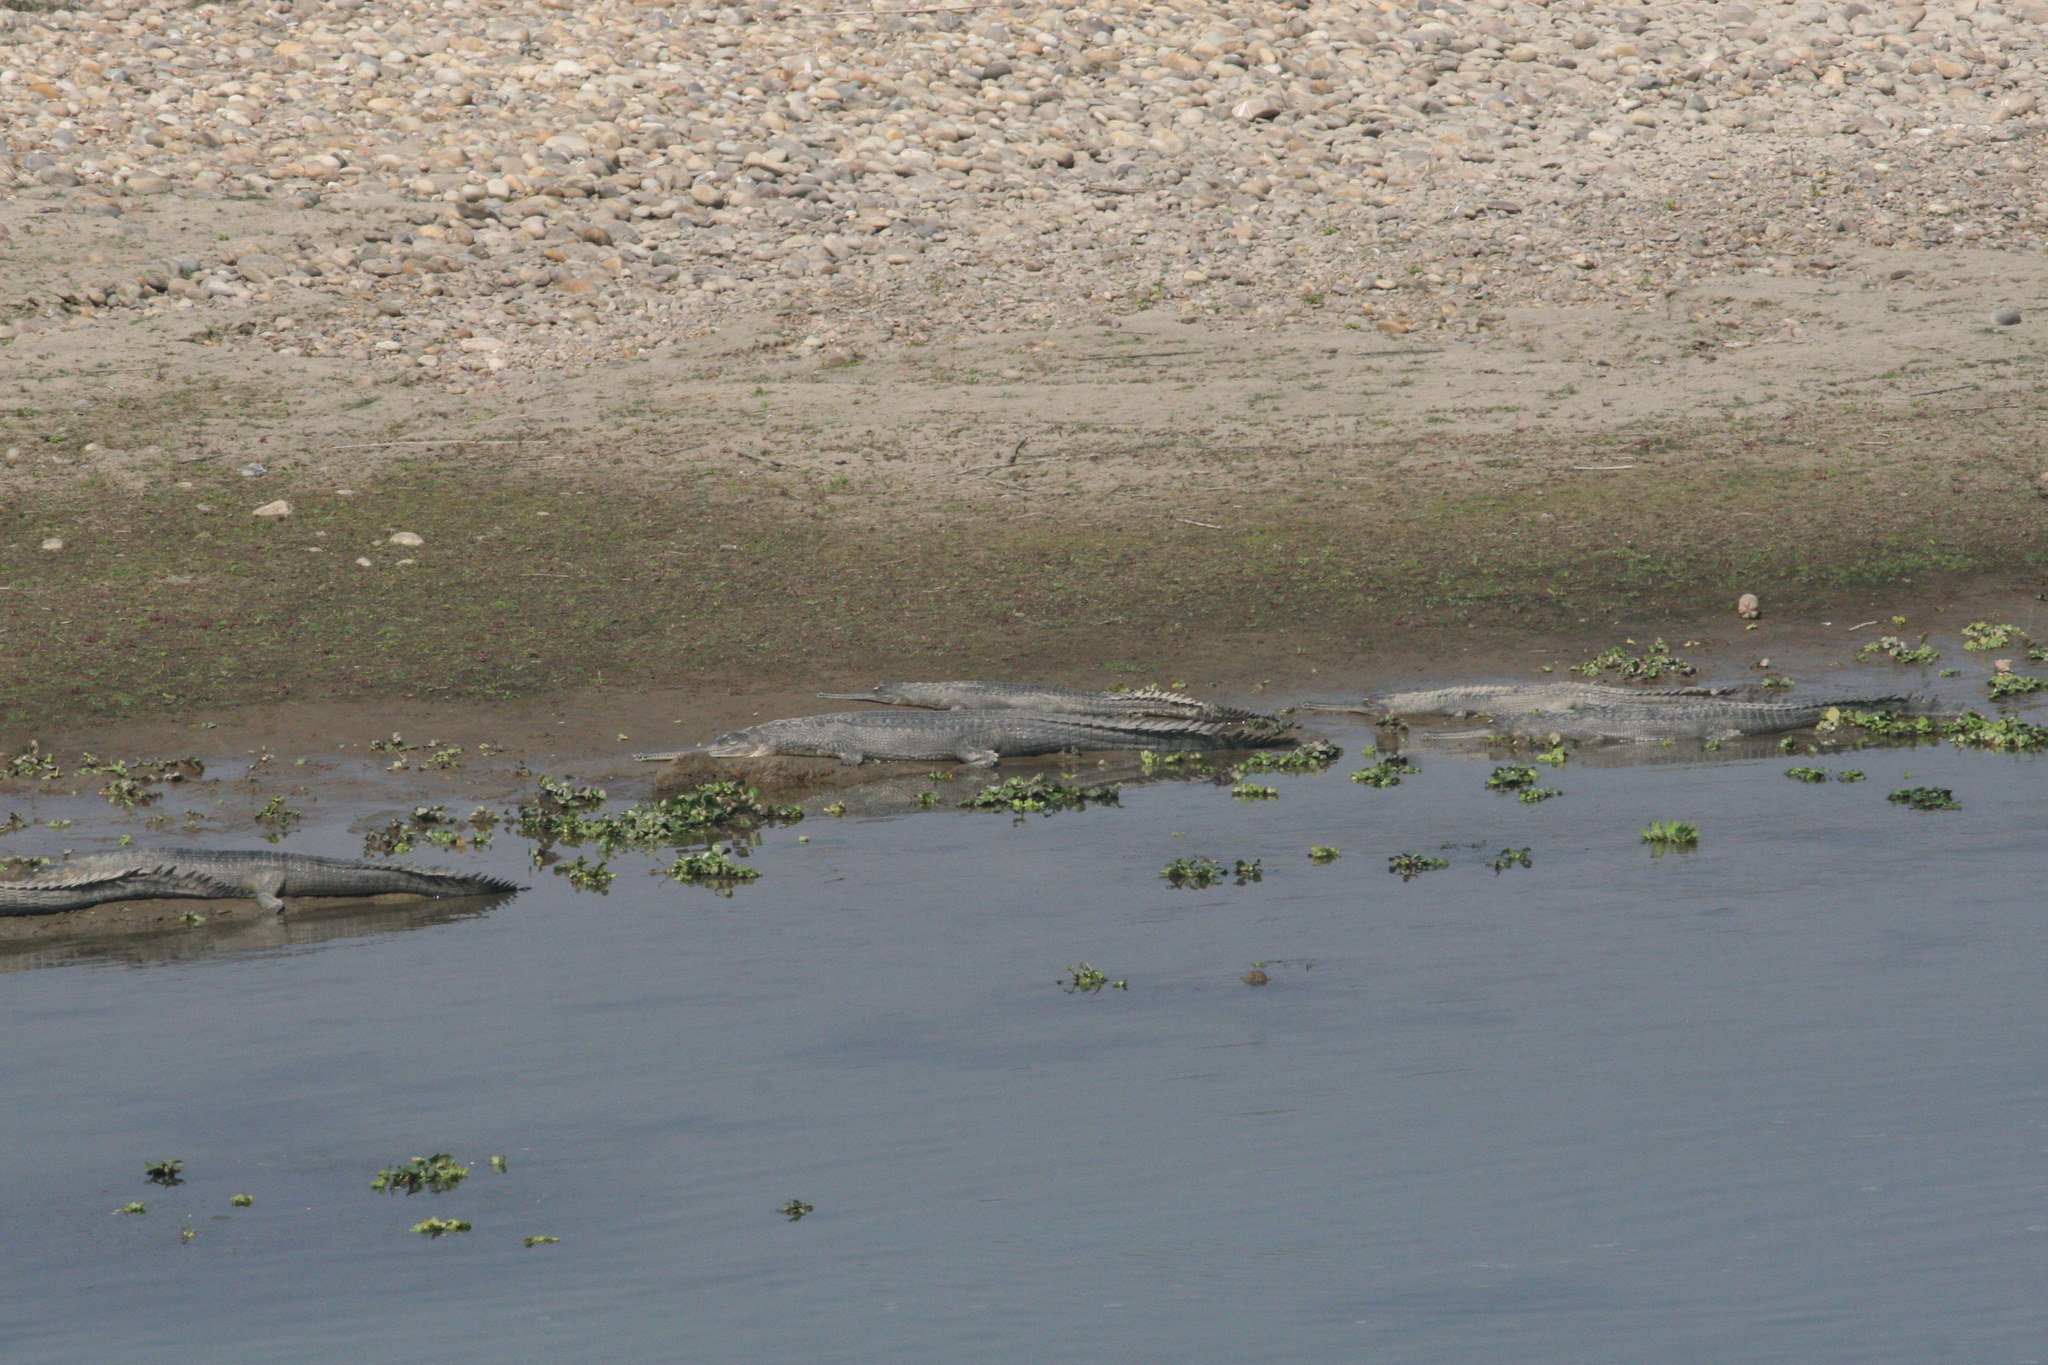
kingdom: Animalia
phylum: Chordata
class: Crocodylia
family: Gavialidae
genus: Gavialis
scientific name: Gavialis gangeticus
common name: Gharial
